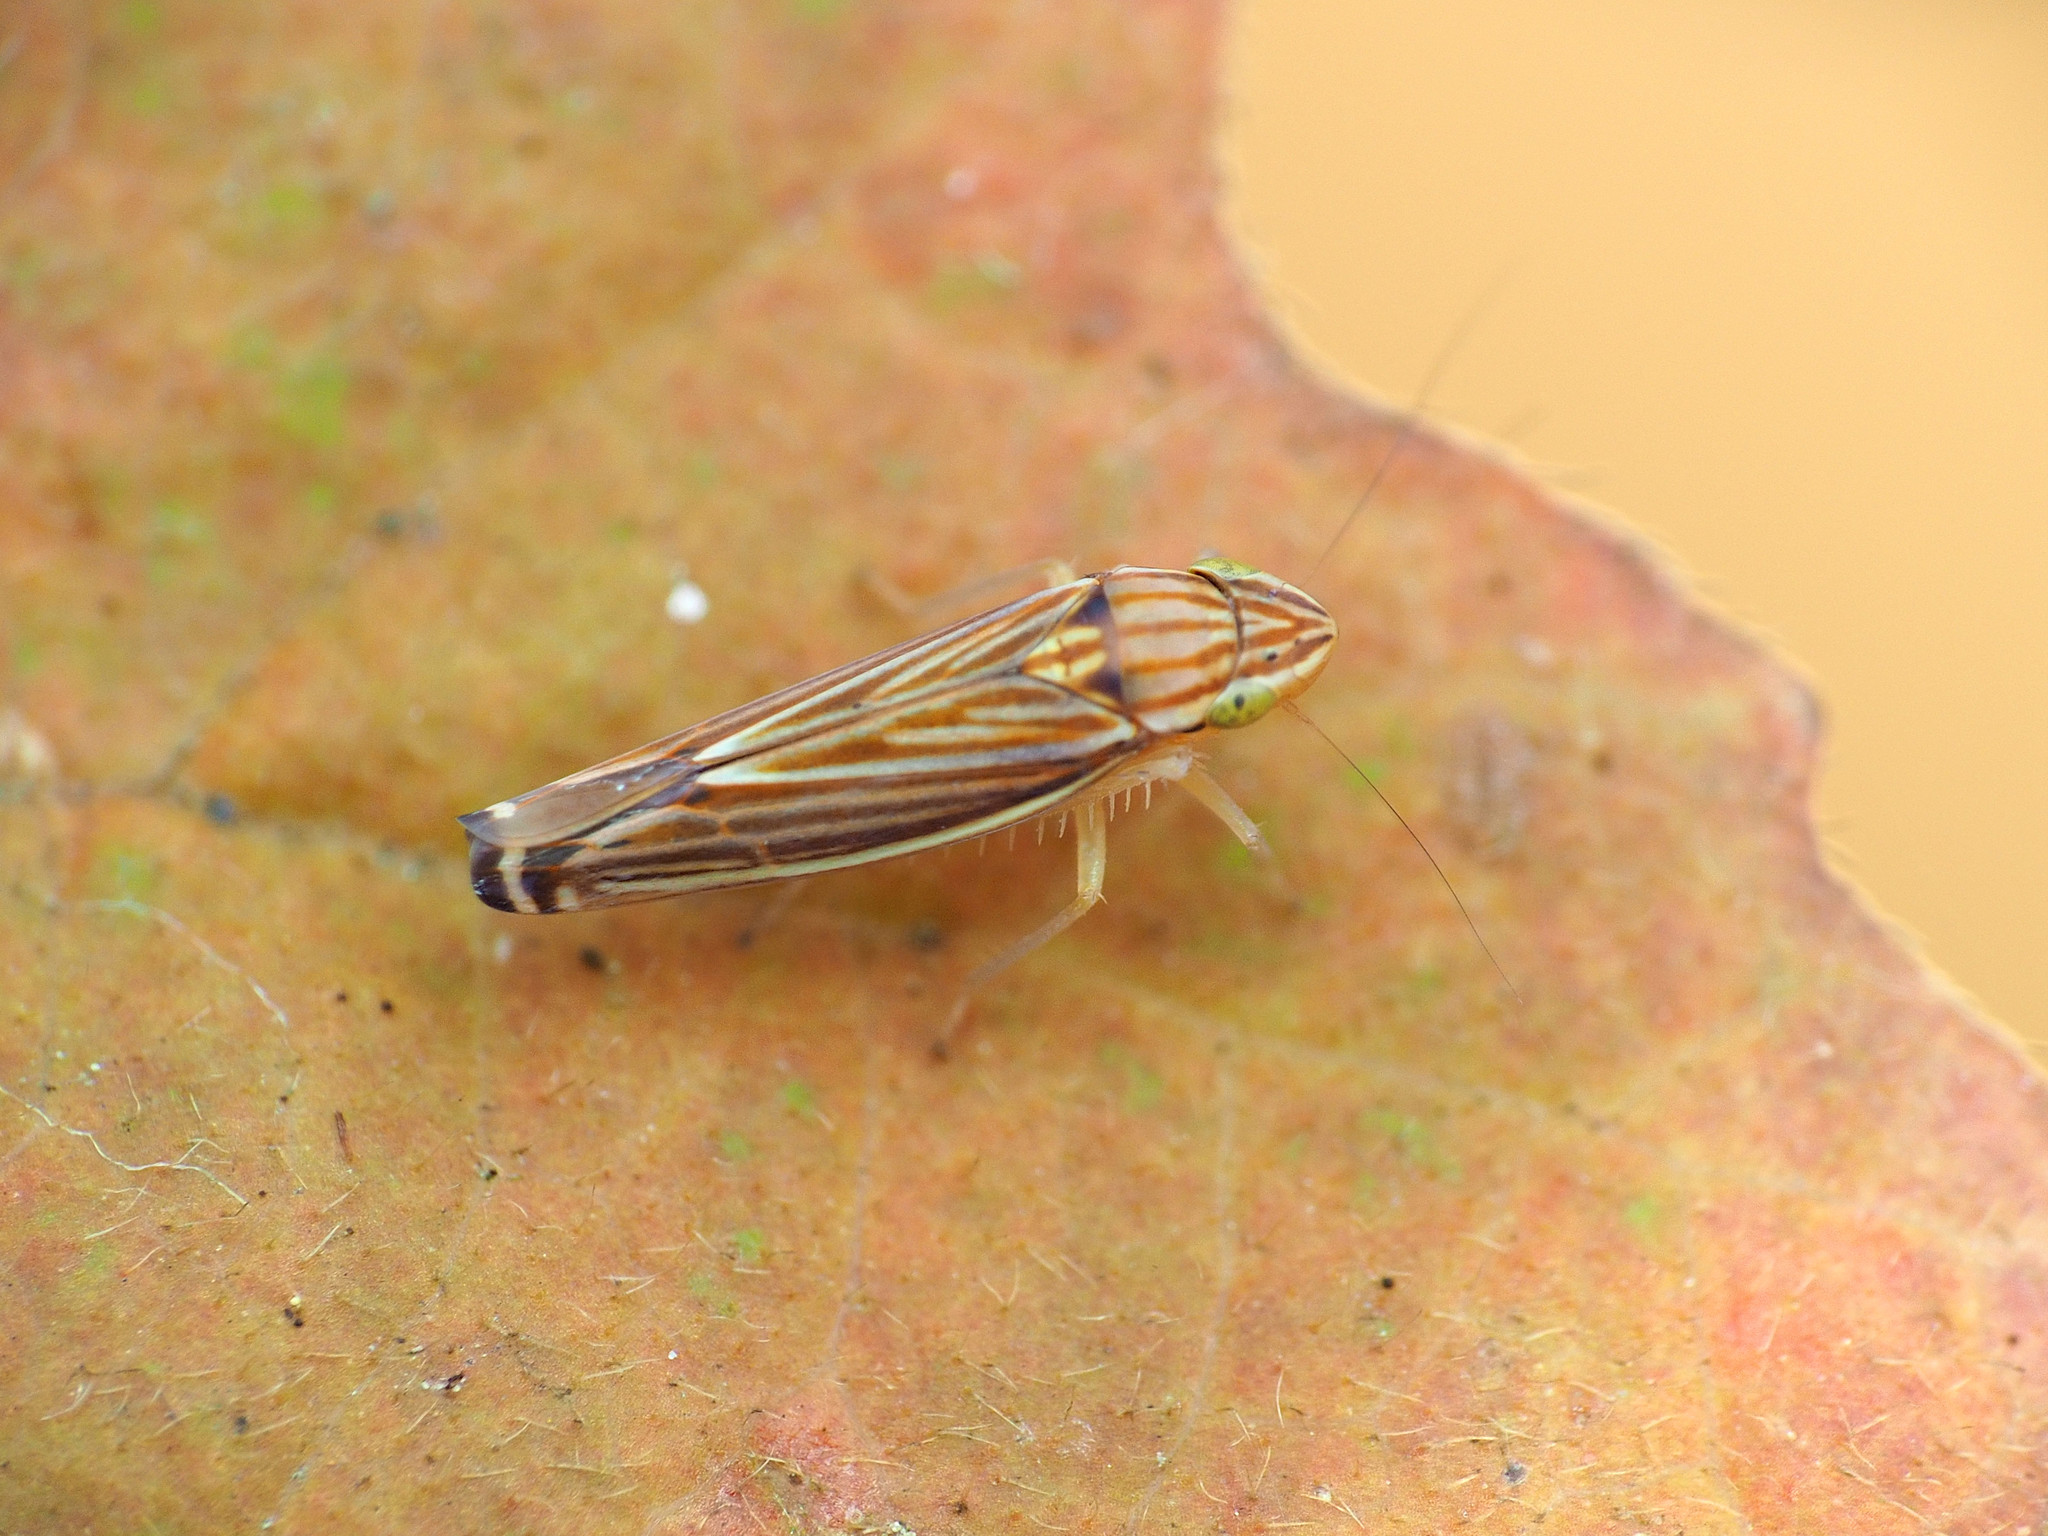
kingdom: Animalia
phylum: Arthropoda
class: Insecta
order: Hemiptera
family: Cicadellidae
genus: Sibovia
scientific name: Sibovia occatoria
